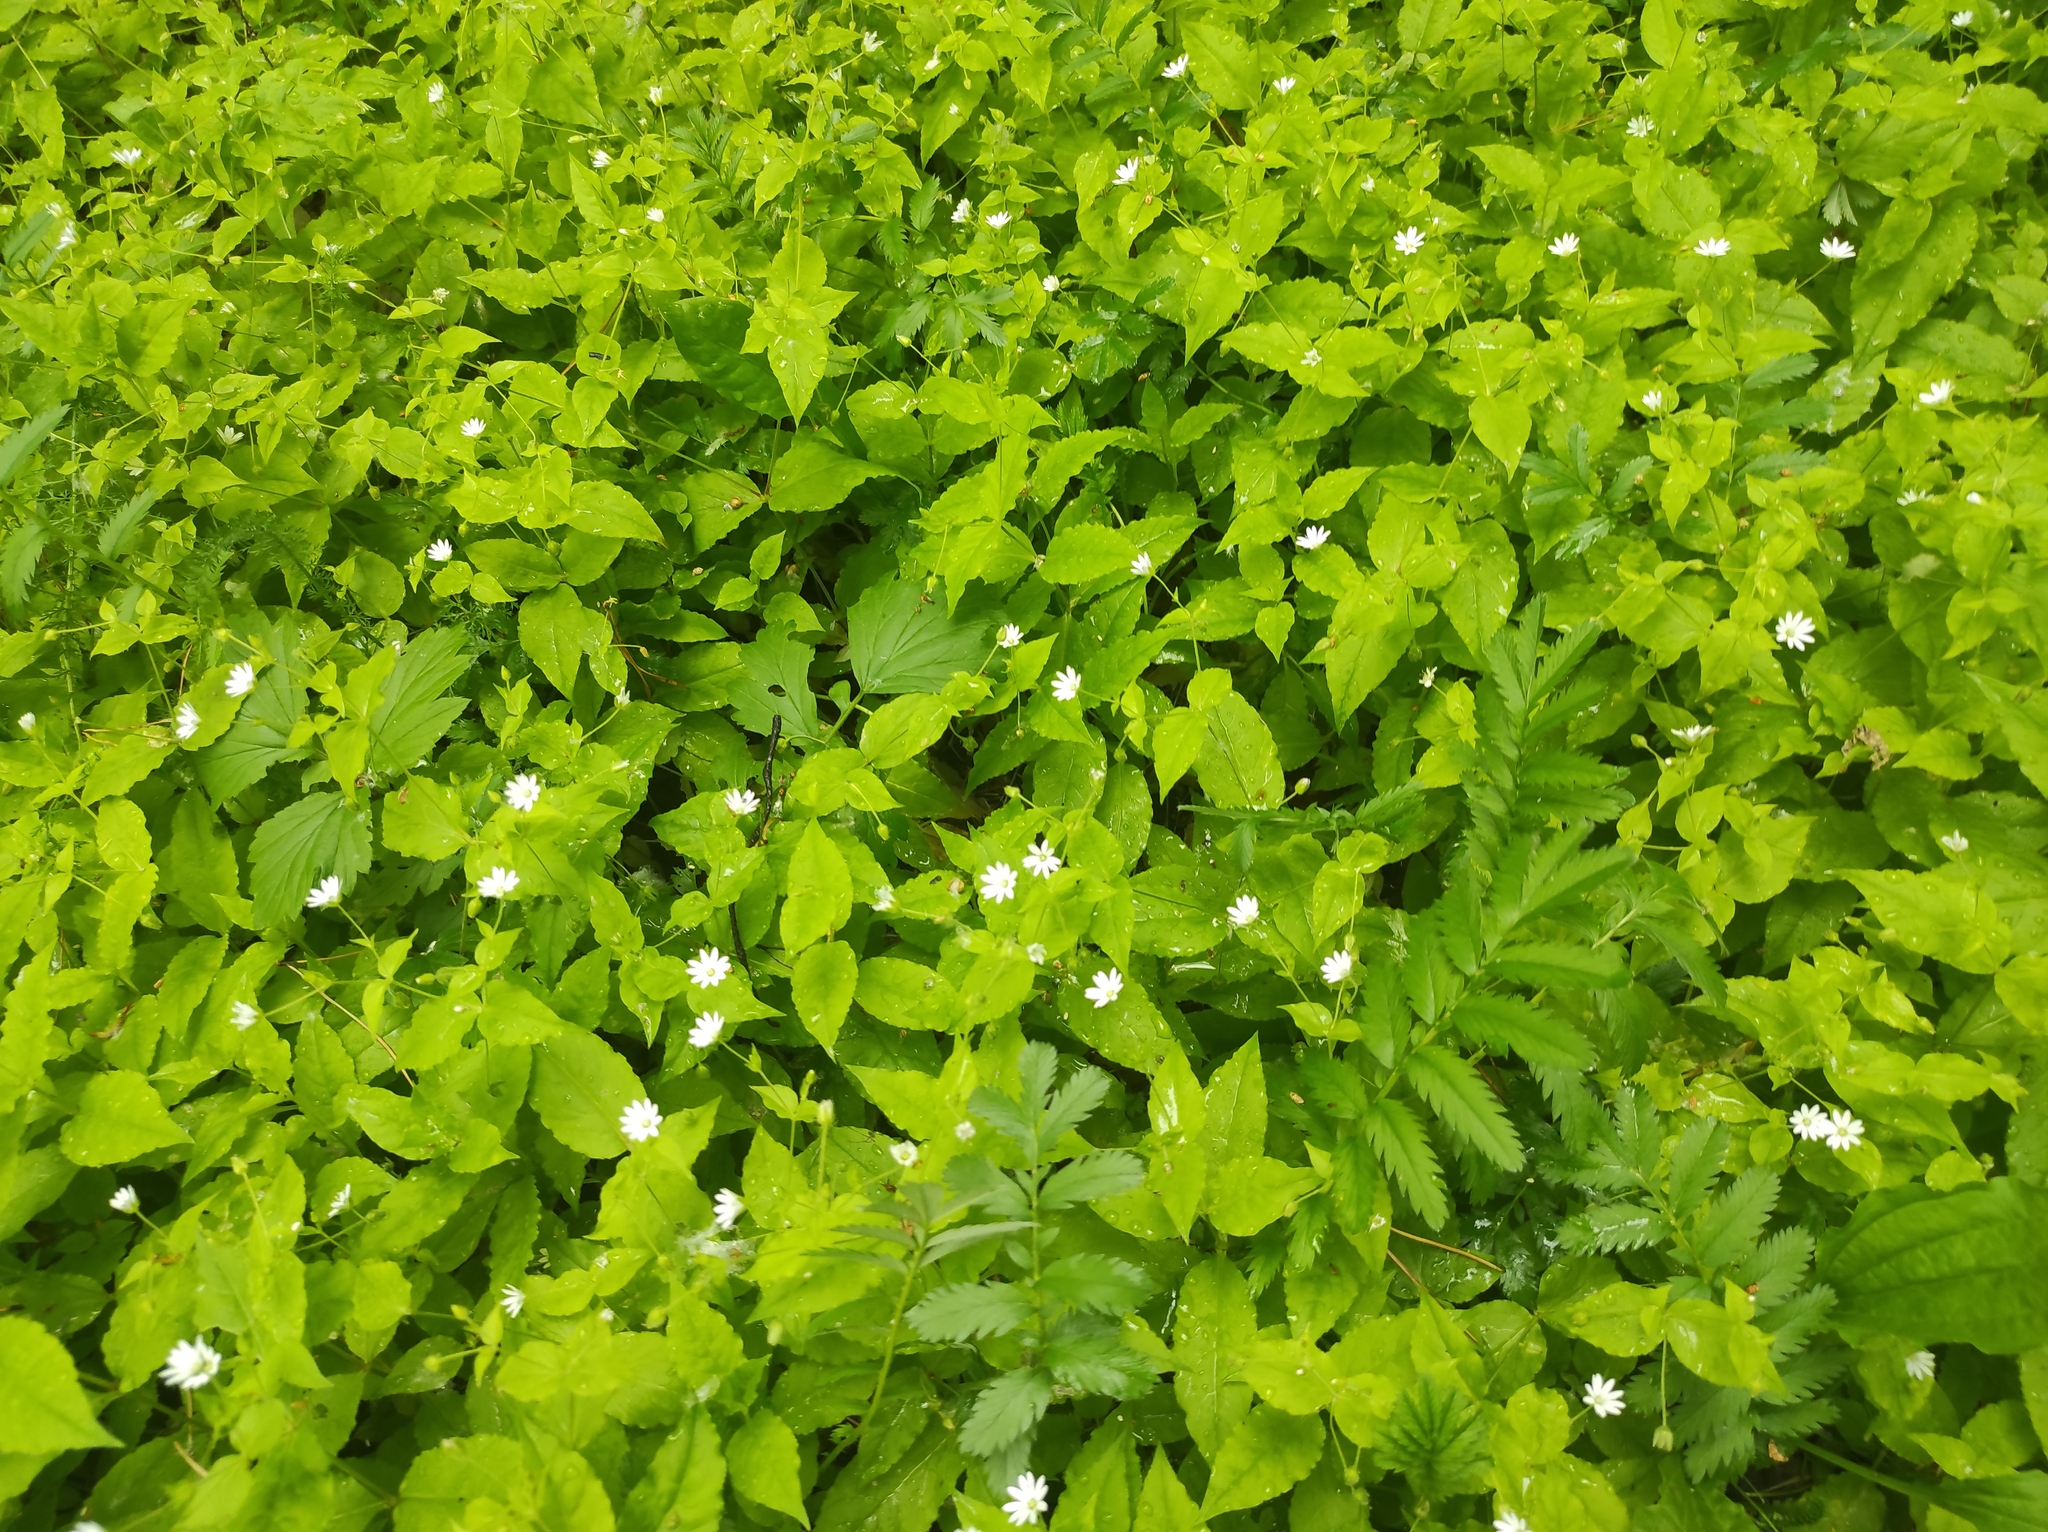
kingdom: Plantae
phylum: Tracheophyta
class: Magnoliopsida
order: Caryophyllales
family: Caryophyllaceae
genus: Stellaria
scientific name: Stellaria bungeana
